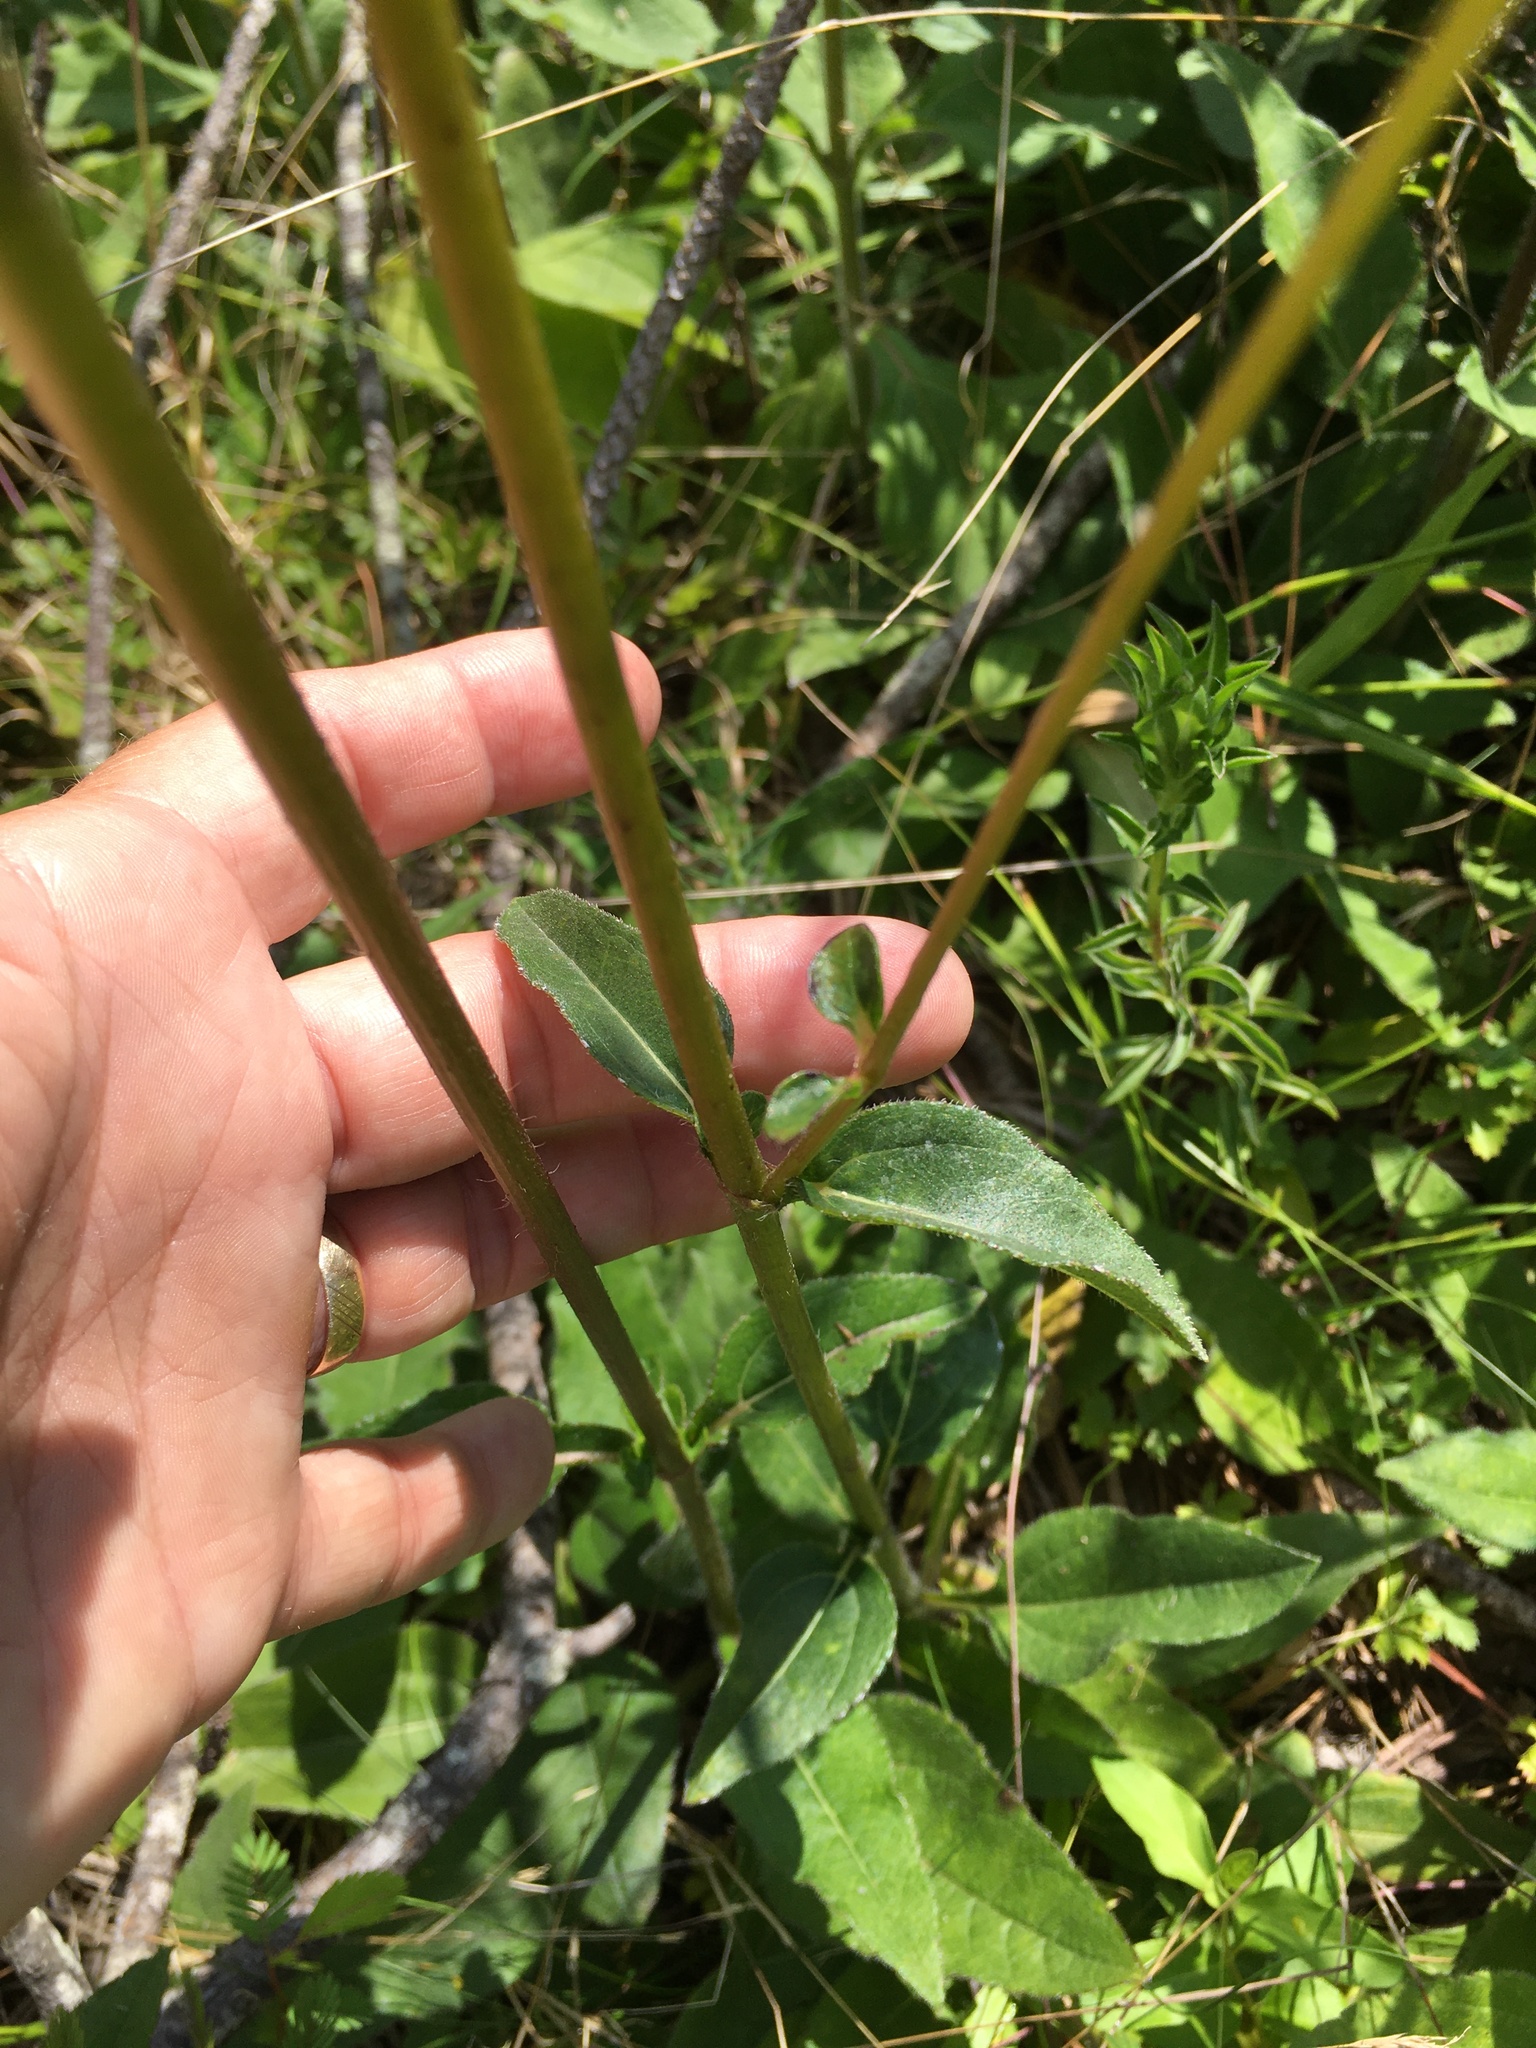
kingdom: Plantae
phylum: Tracheophyta
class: Magnoliopsida
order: Asterales
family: Asteraceae
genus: Helianthus
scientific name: Helianthus atrorubens
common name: Dark-eyed sunflower
